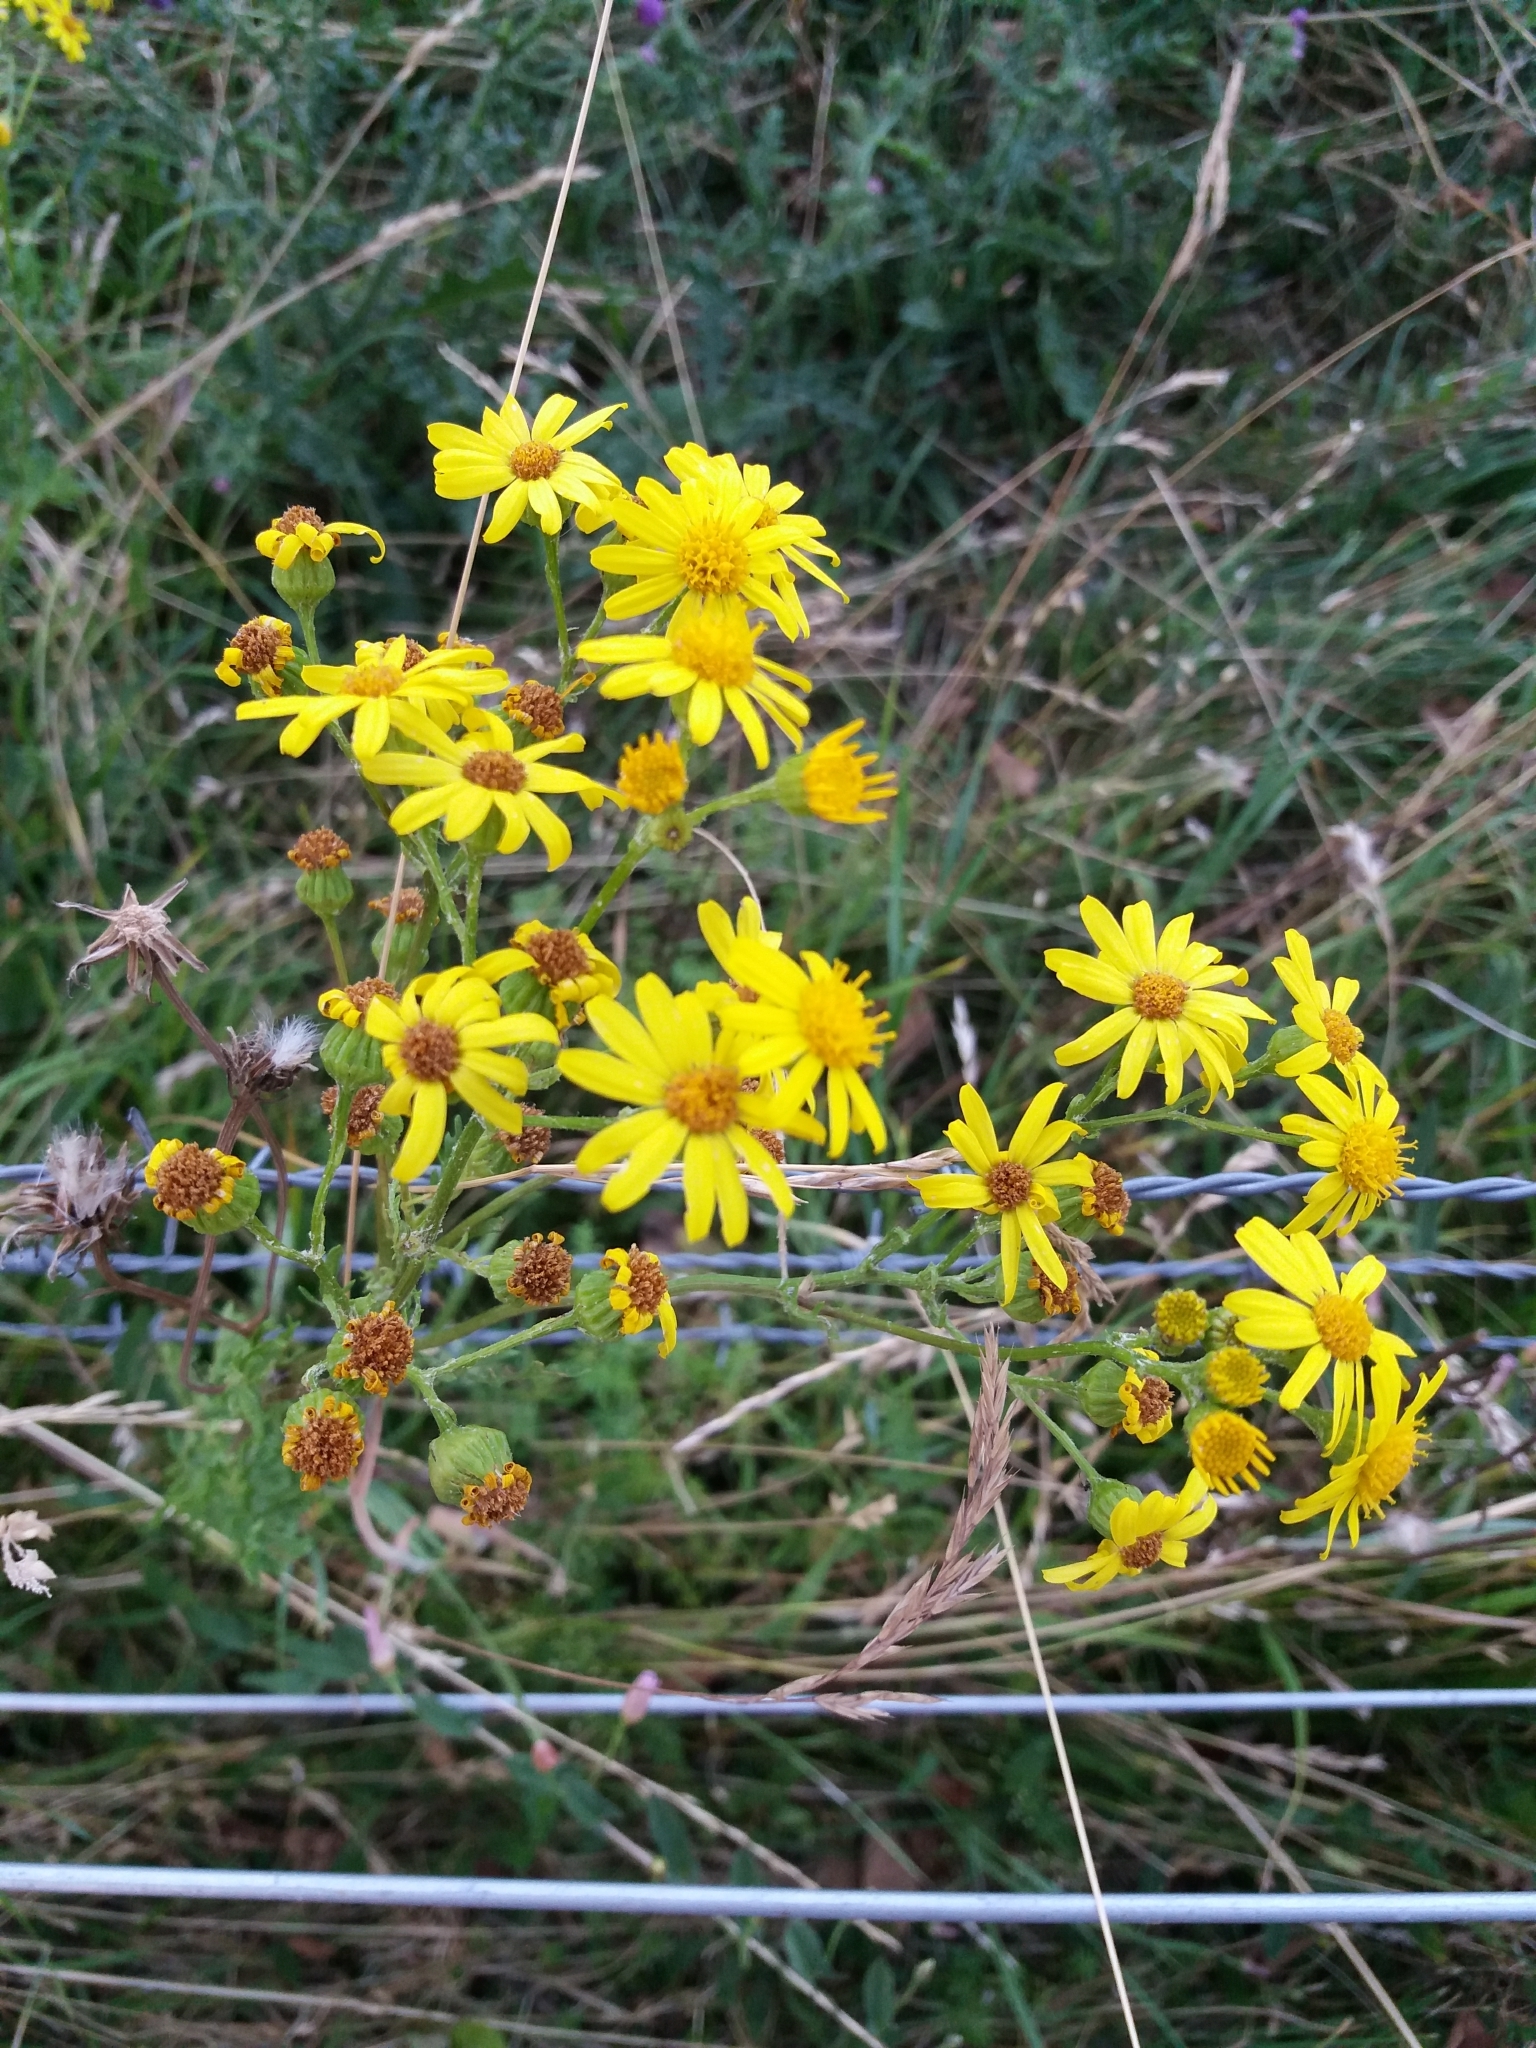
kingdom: Plantae
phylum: Tracheophyta
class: Magnoliopsida
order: Asterales
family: Asteraceae
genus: Jacobaea
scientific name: Jacobaea vulgaris
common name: Stinking willie
